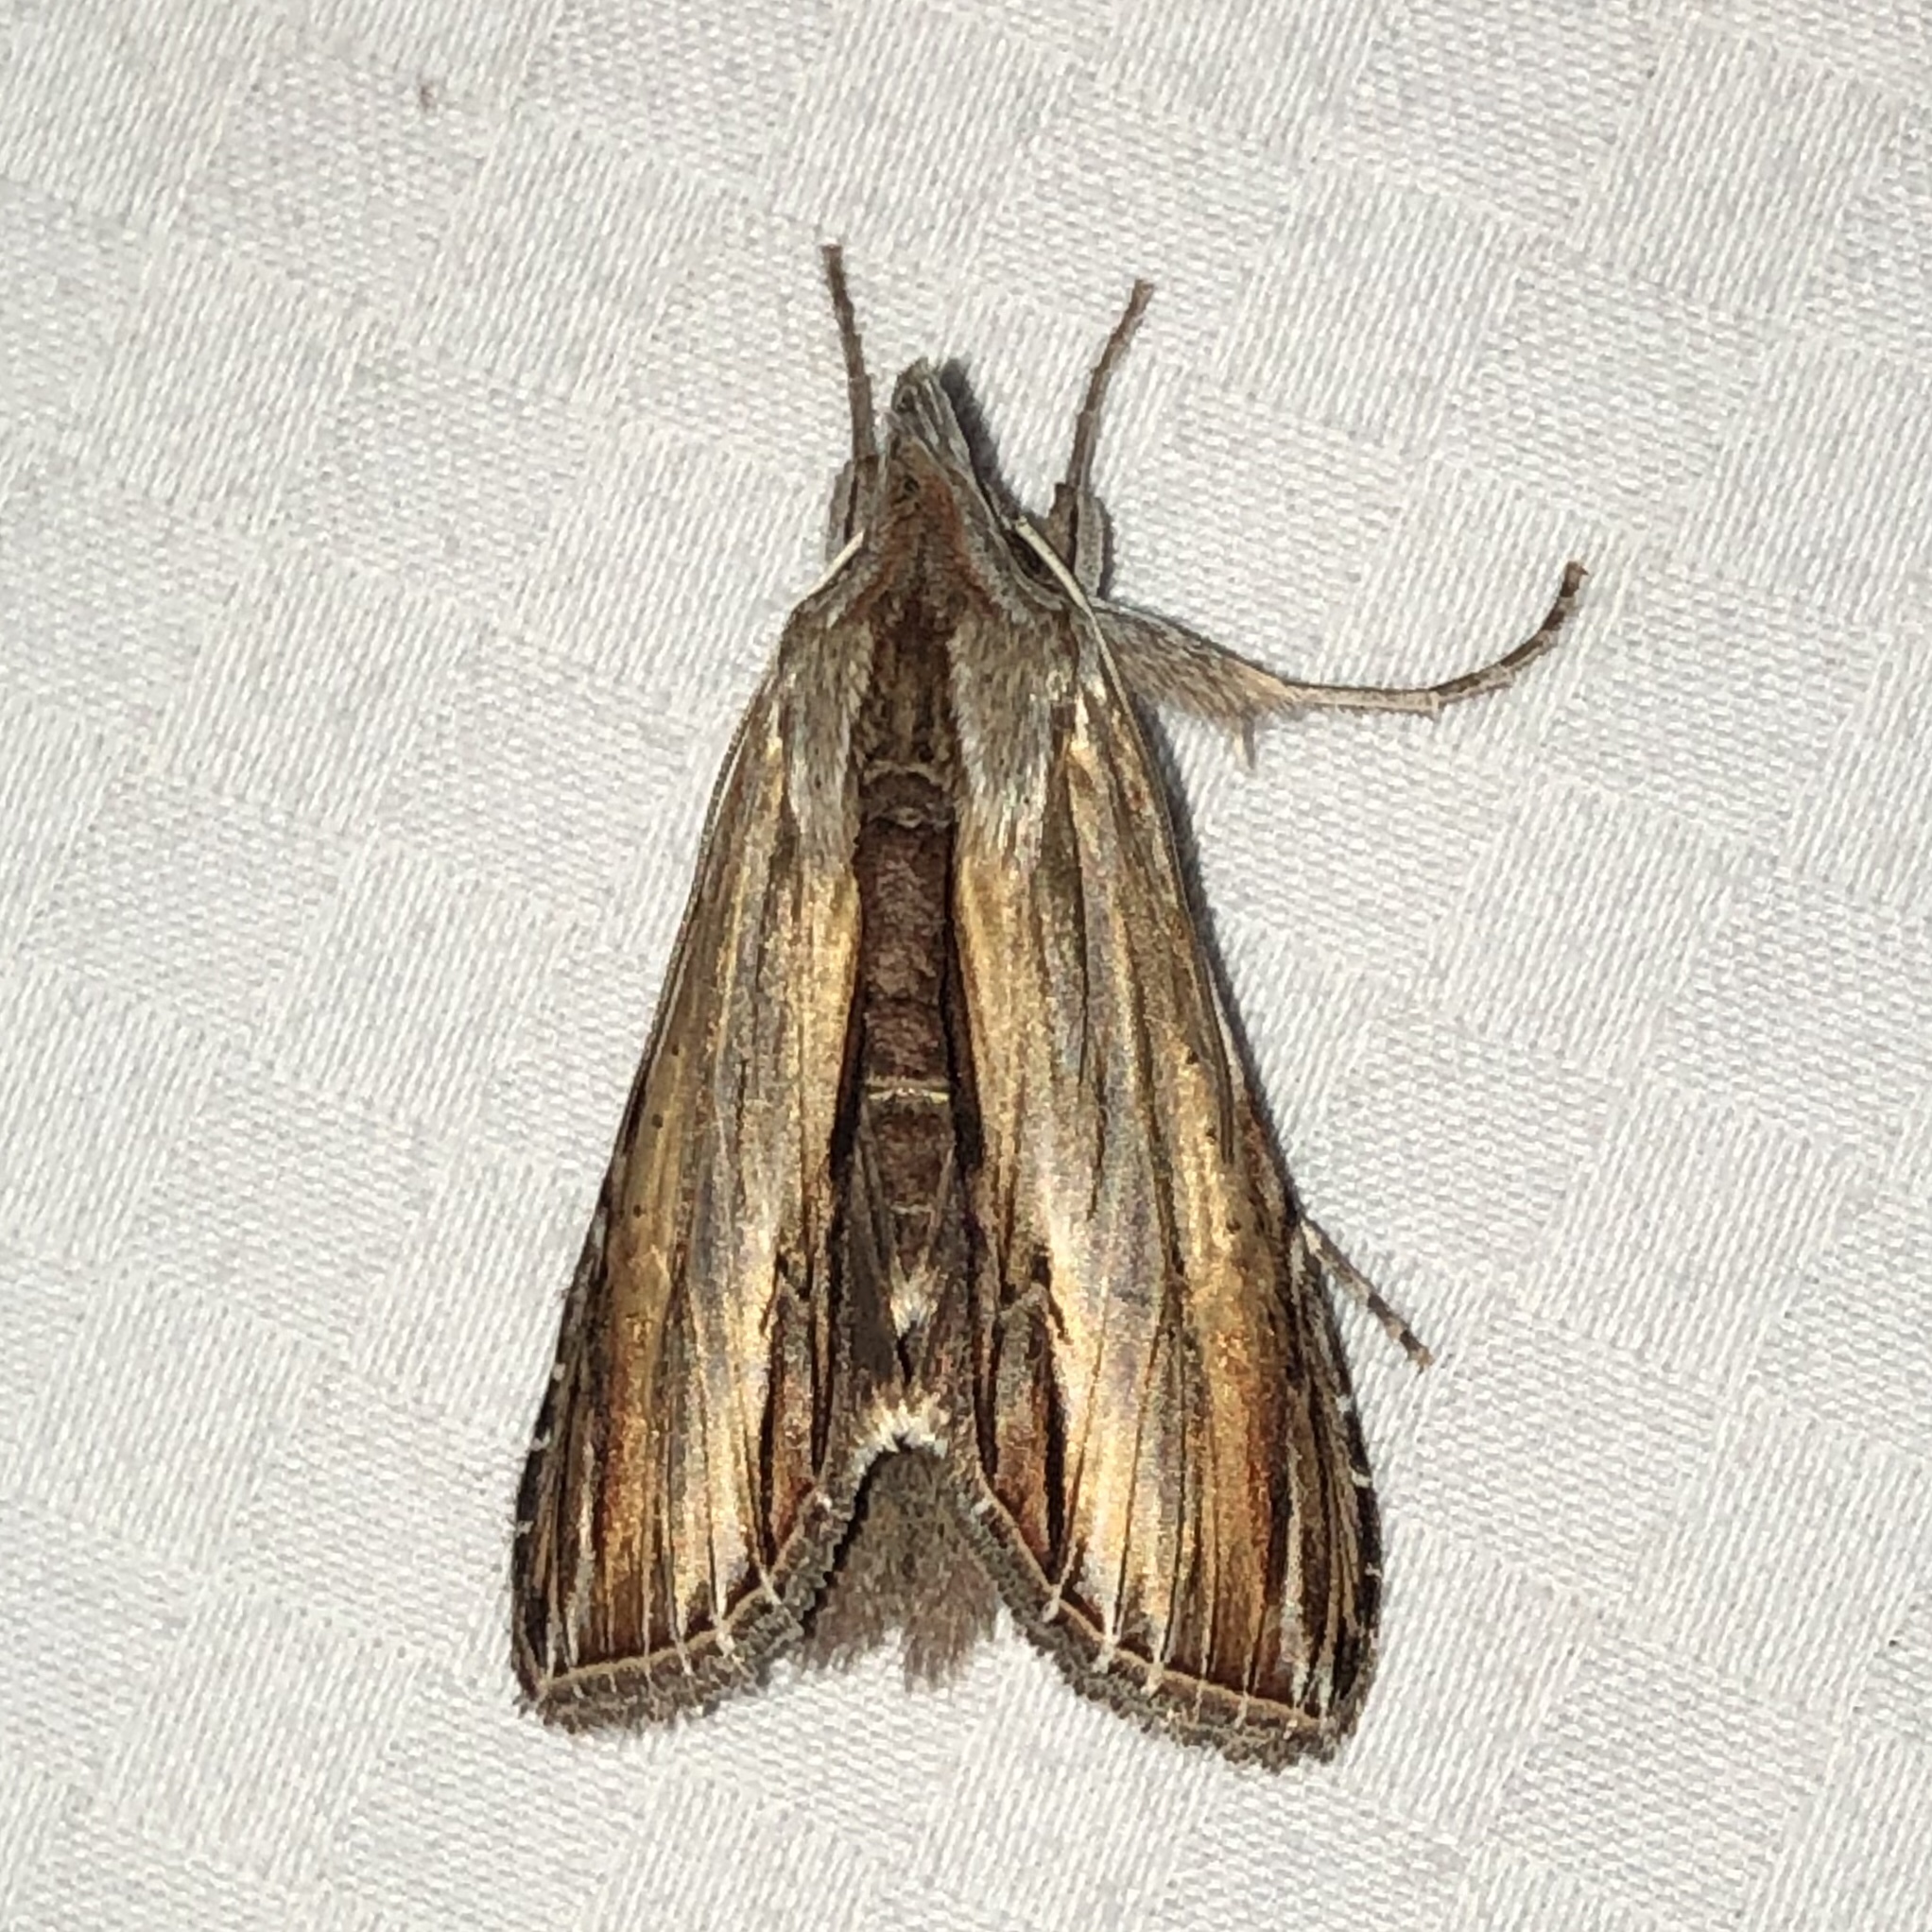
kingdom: Animalia
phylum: Arthropoda
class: Insecta
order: Lepidoptera
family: Noctuidae
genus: Cucullia
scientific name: Cucullia convexipennis
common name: Brown-hooded owlet
